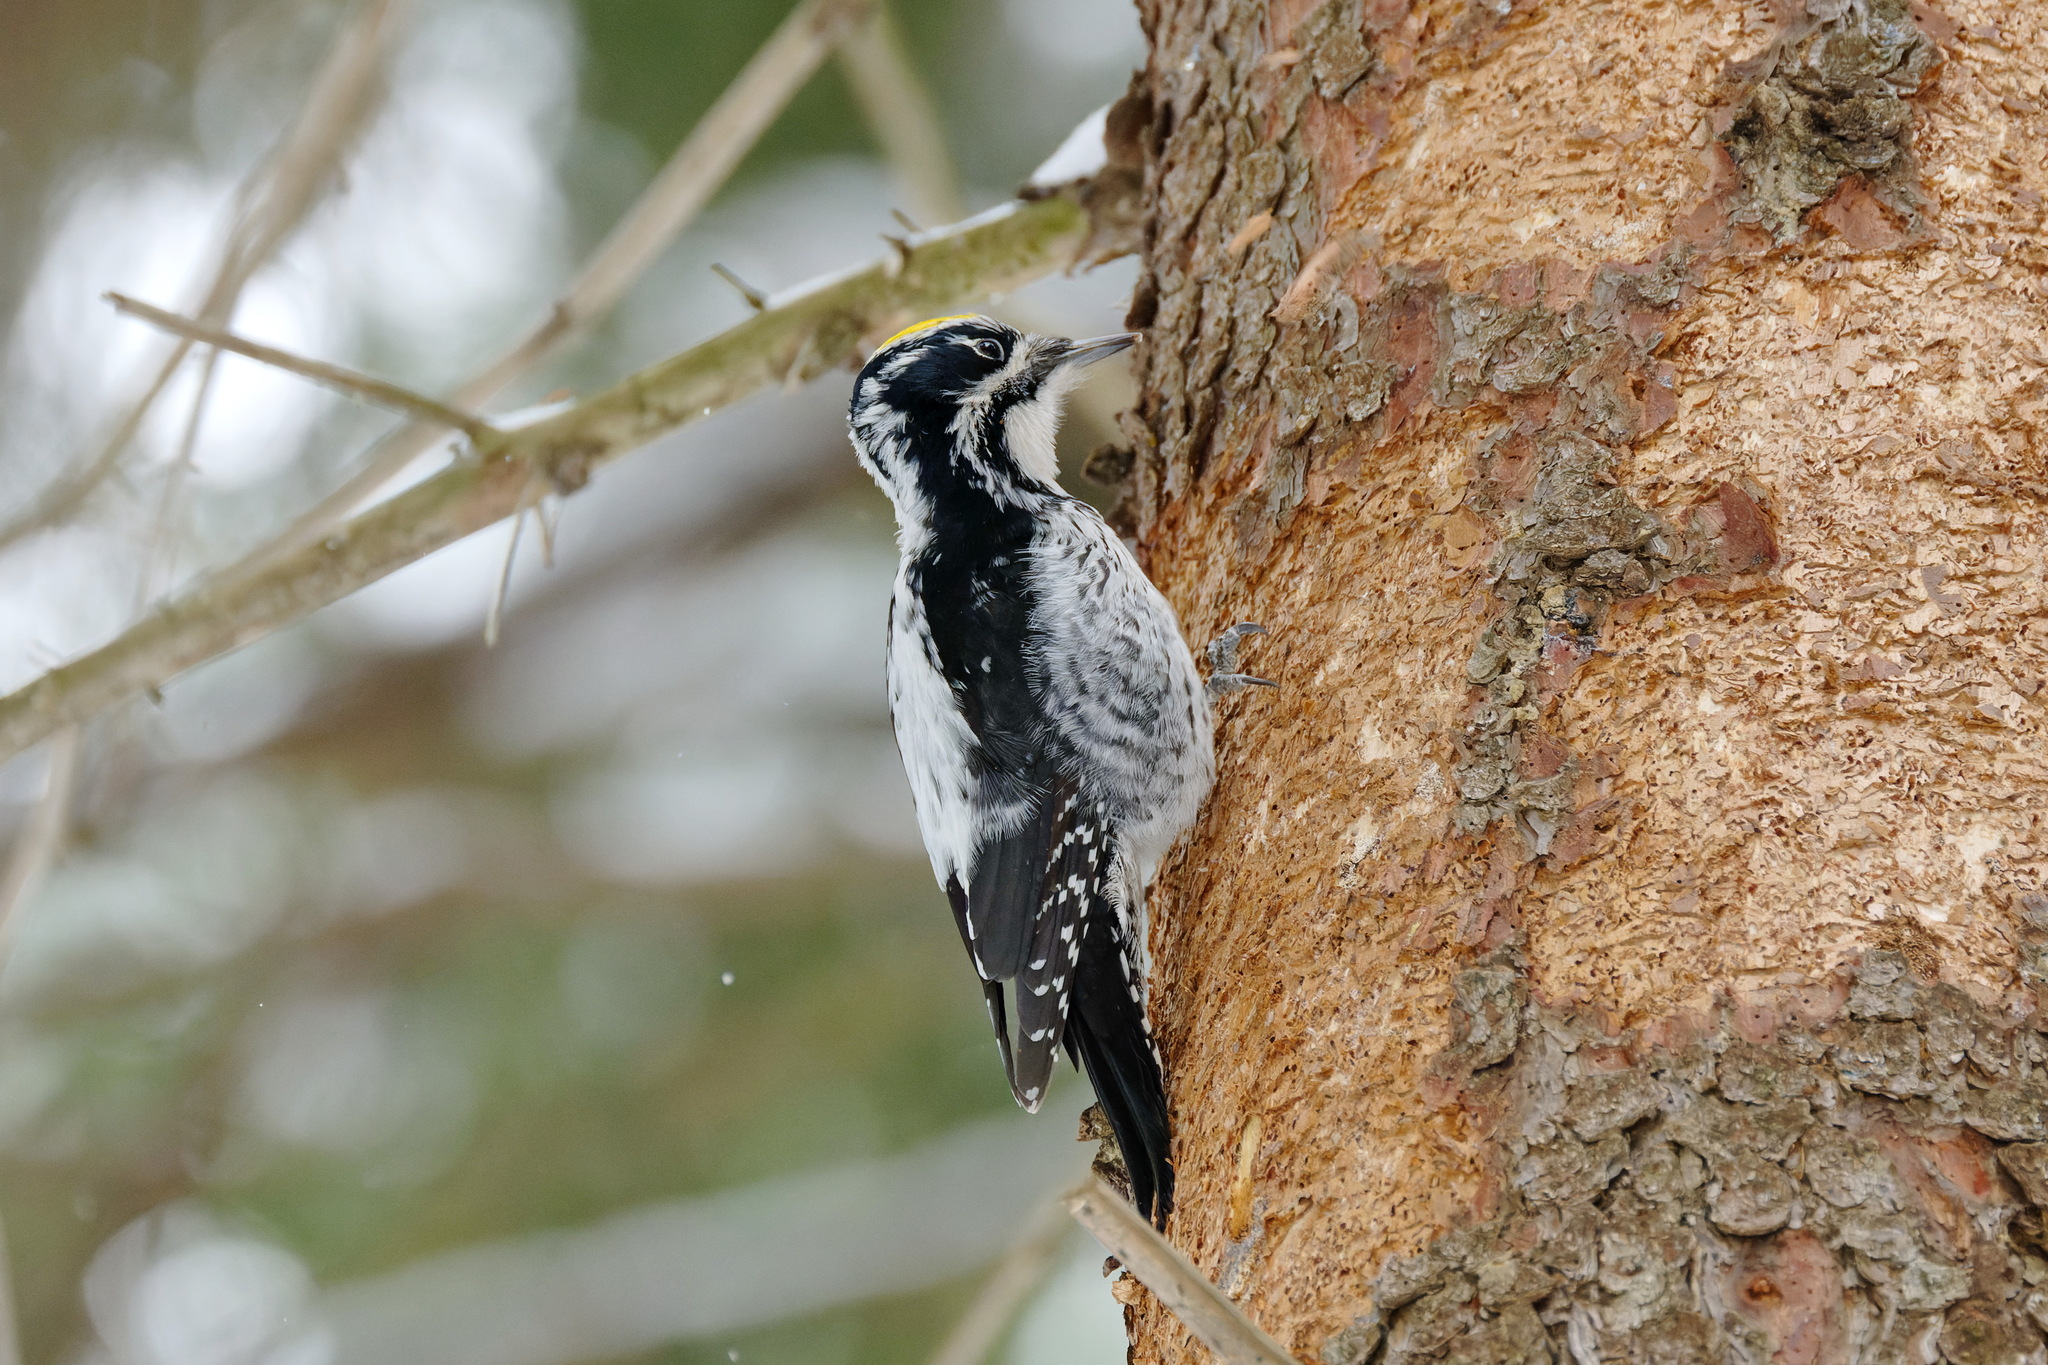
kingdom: Animalia
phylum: Chordata
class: Aves
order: Piciformes
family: Picidae
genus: Picoides
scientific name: Picoides tridactylus
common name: Eurasian three-toed woodpecker
